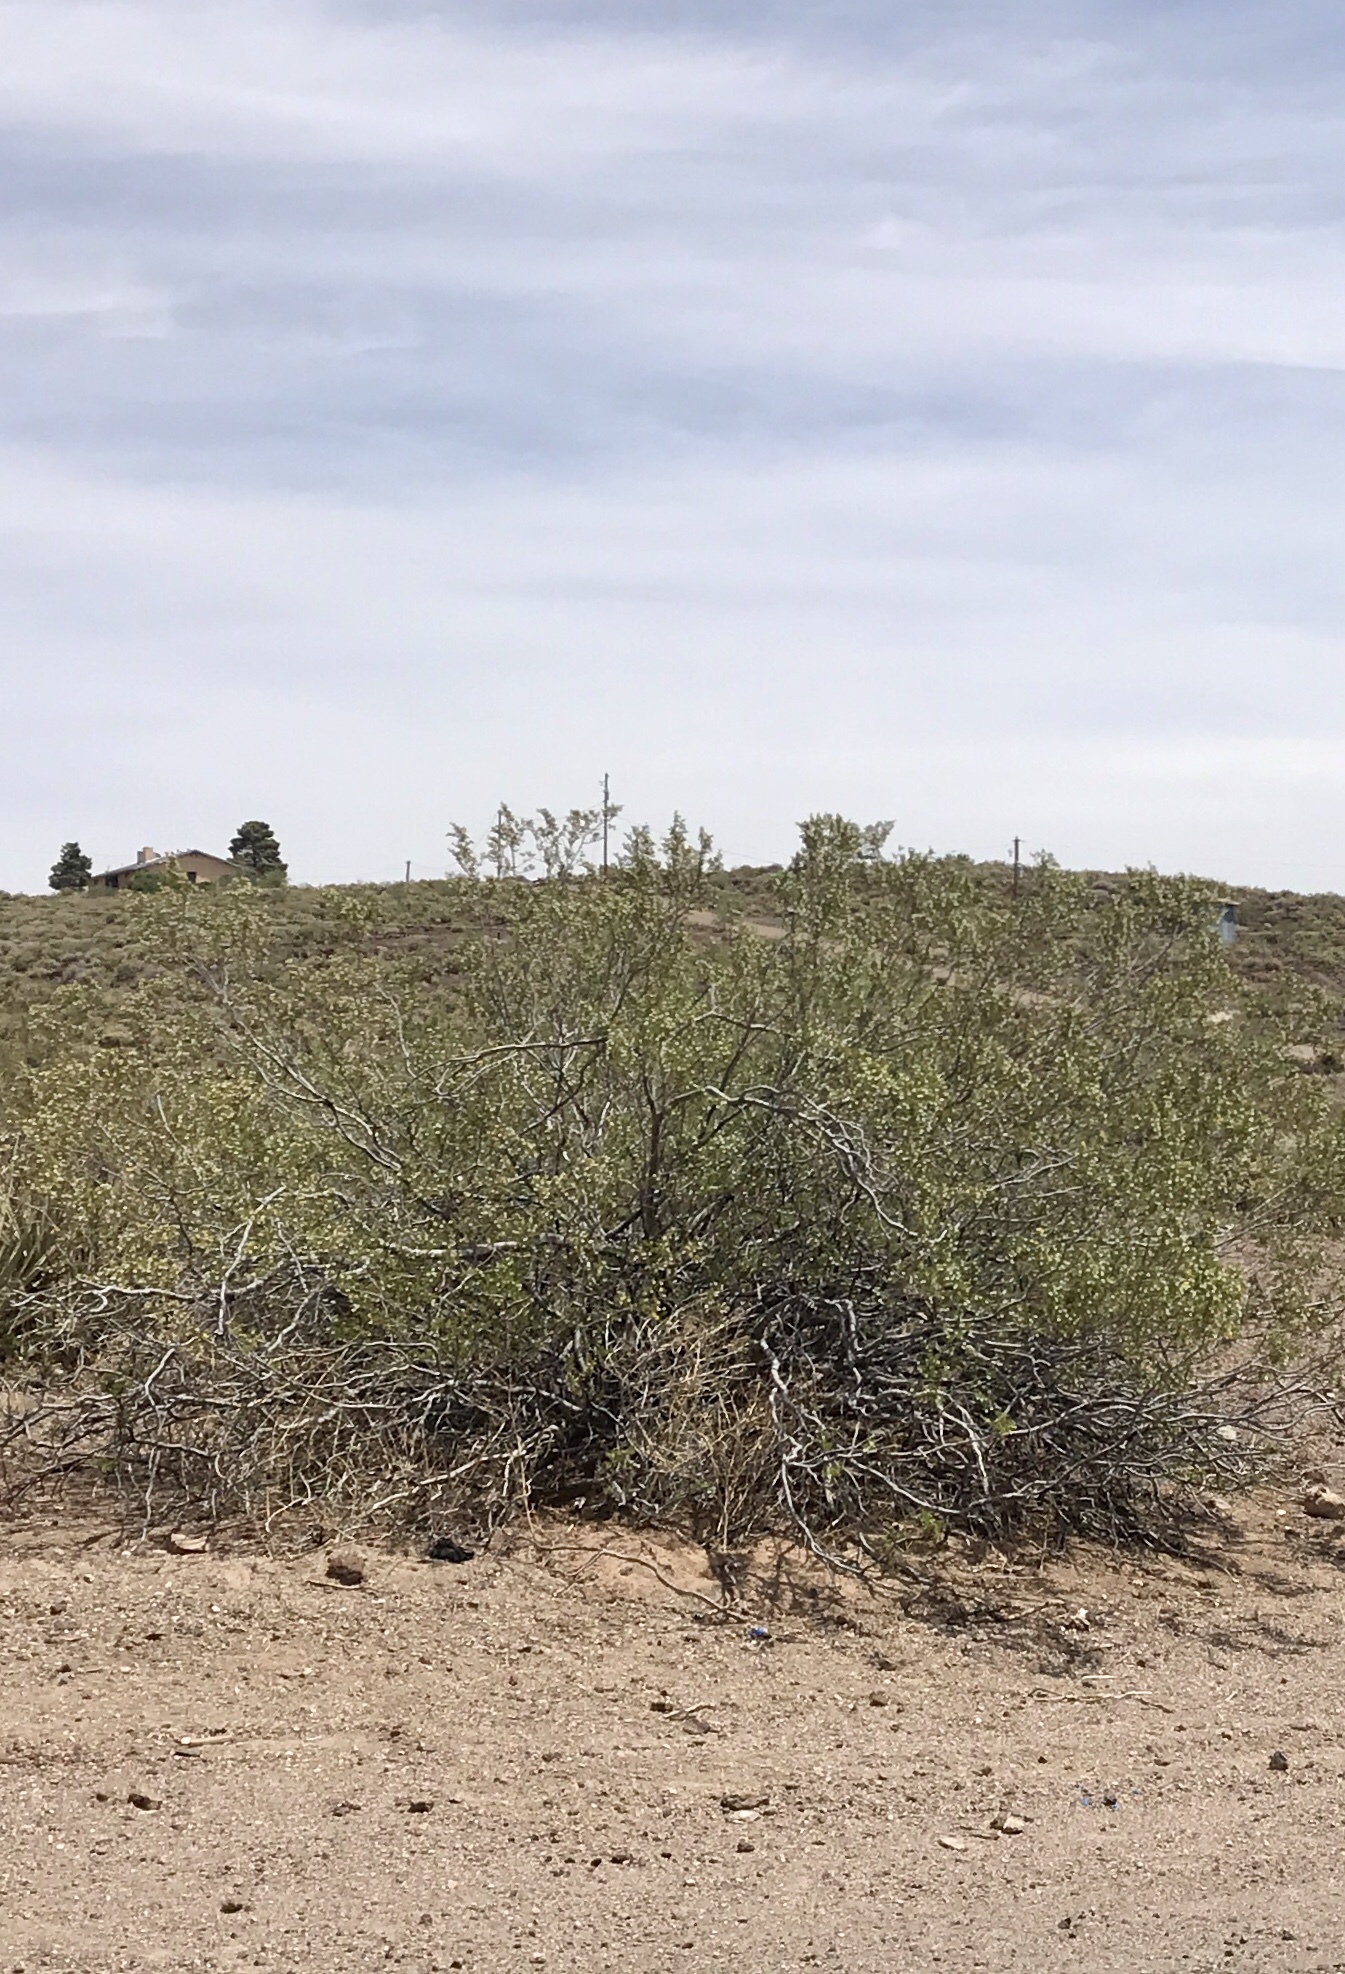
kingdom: Plantae
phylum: Tracheophyta
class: Magnoliopsida
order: Zygophyllales
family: Zygophyllaceae
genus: Larrea
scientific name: Larrea tridentata
